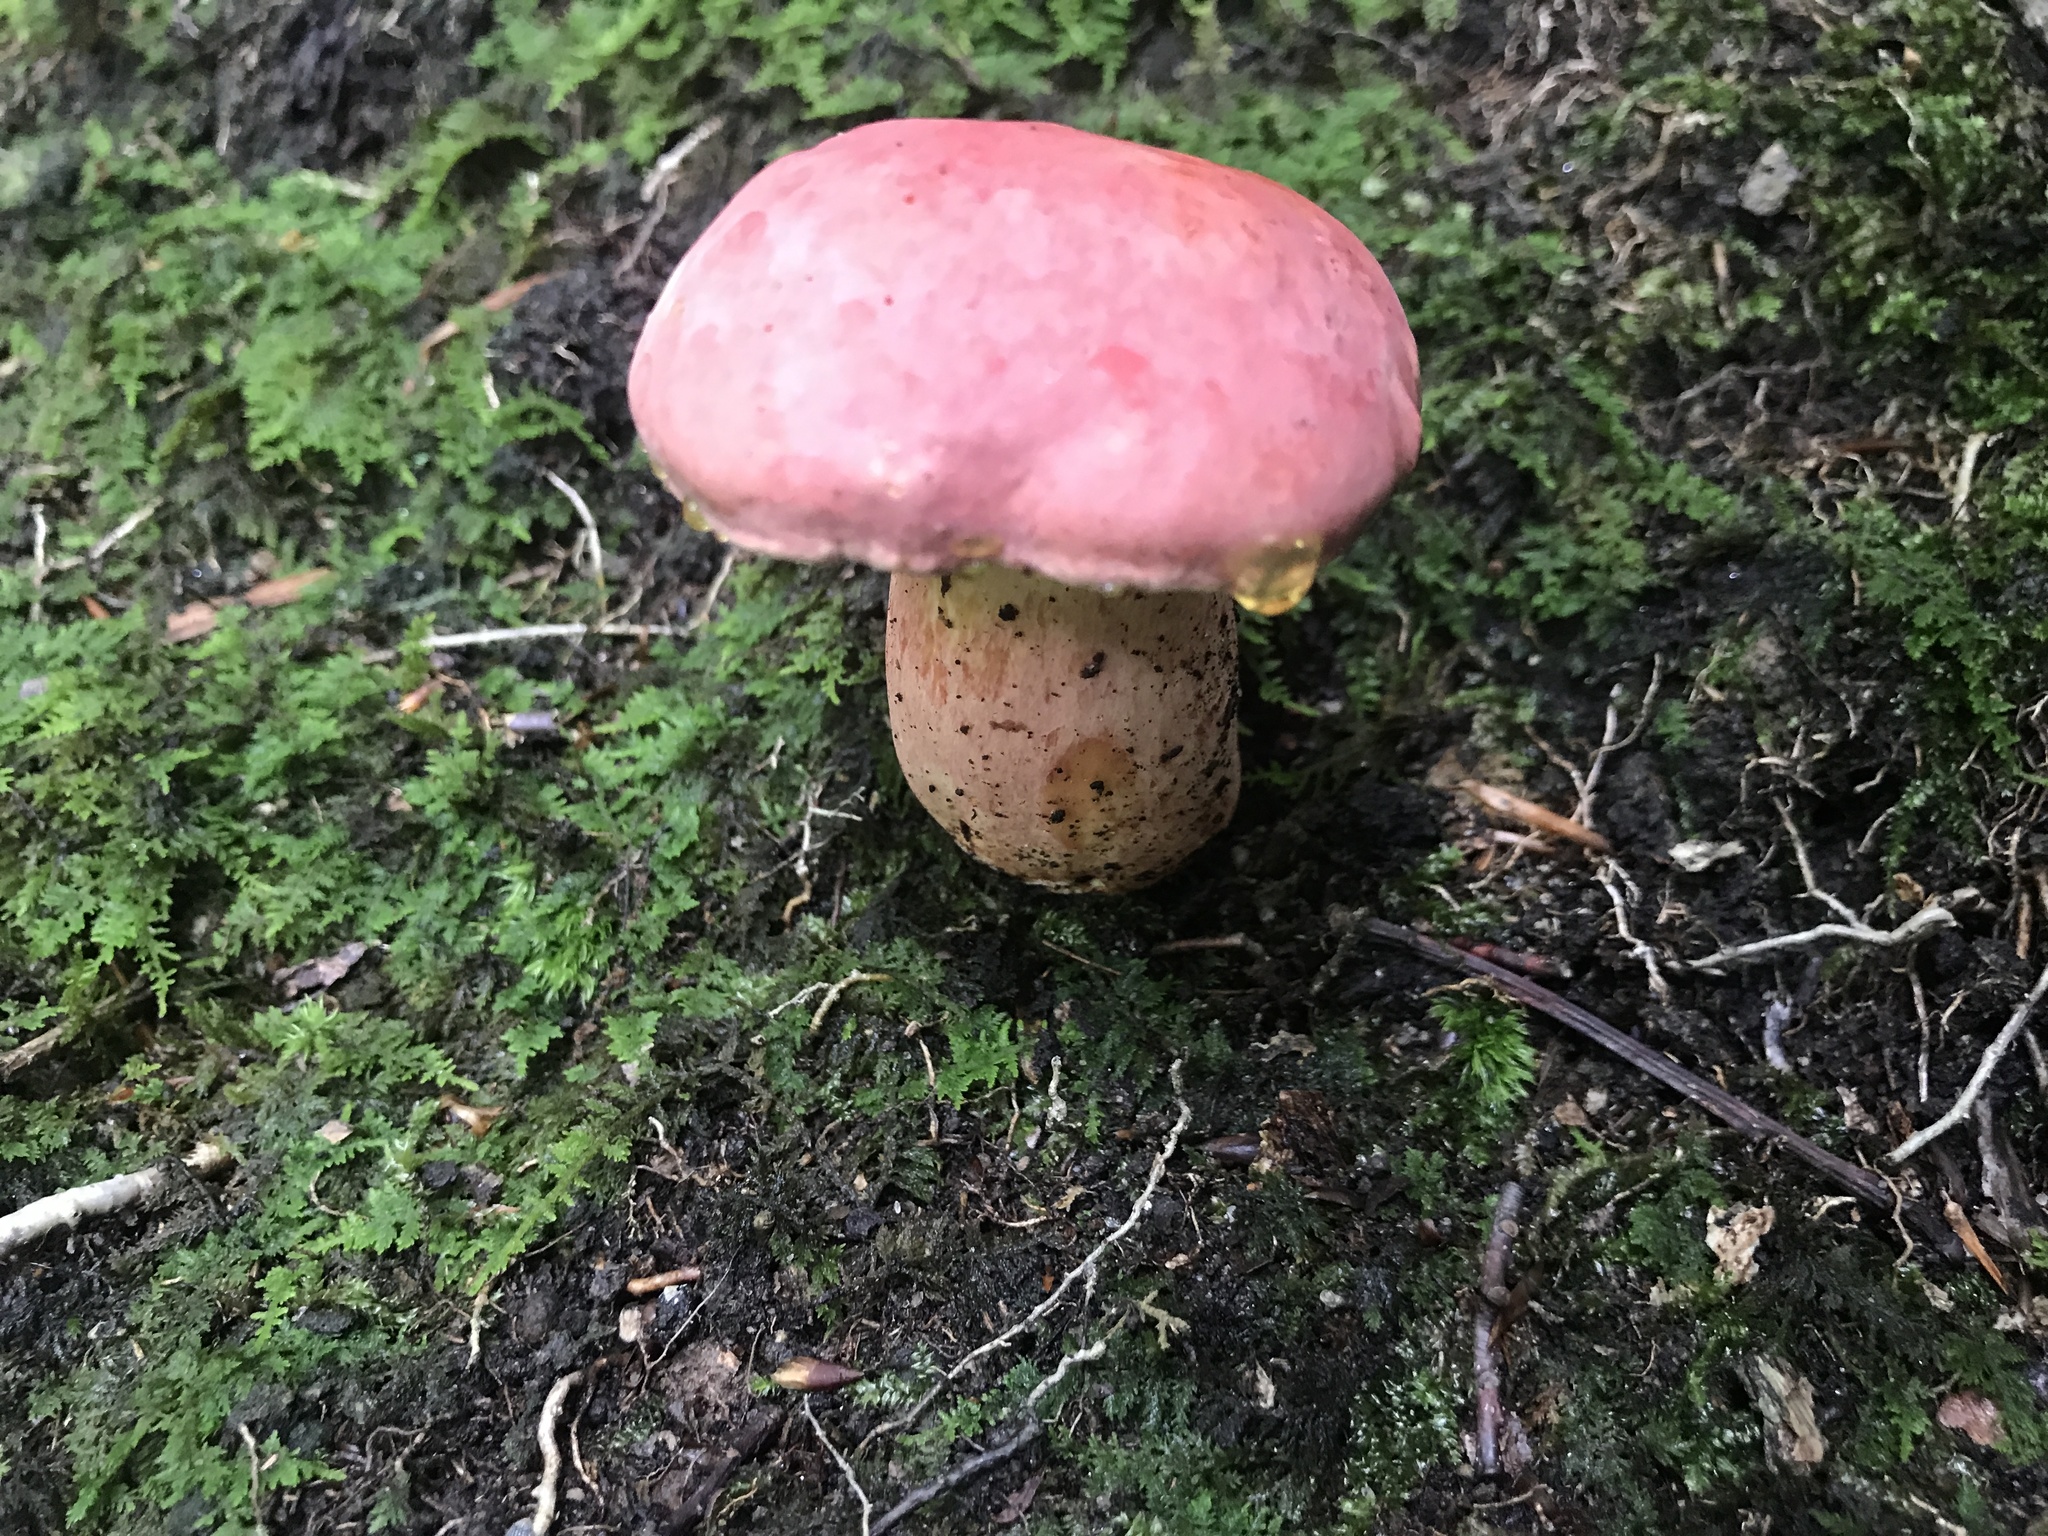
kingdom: Fungi
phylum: Basidiomycota
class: Agaricomycetes
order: Boletales
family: Boletaceae
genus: Lanmaoa
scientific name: Lanmaoa pallidorosea
